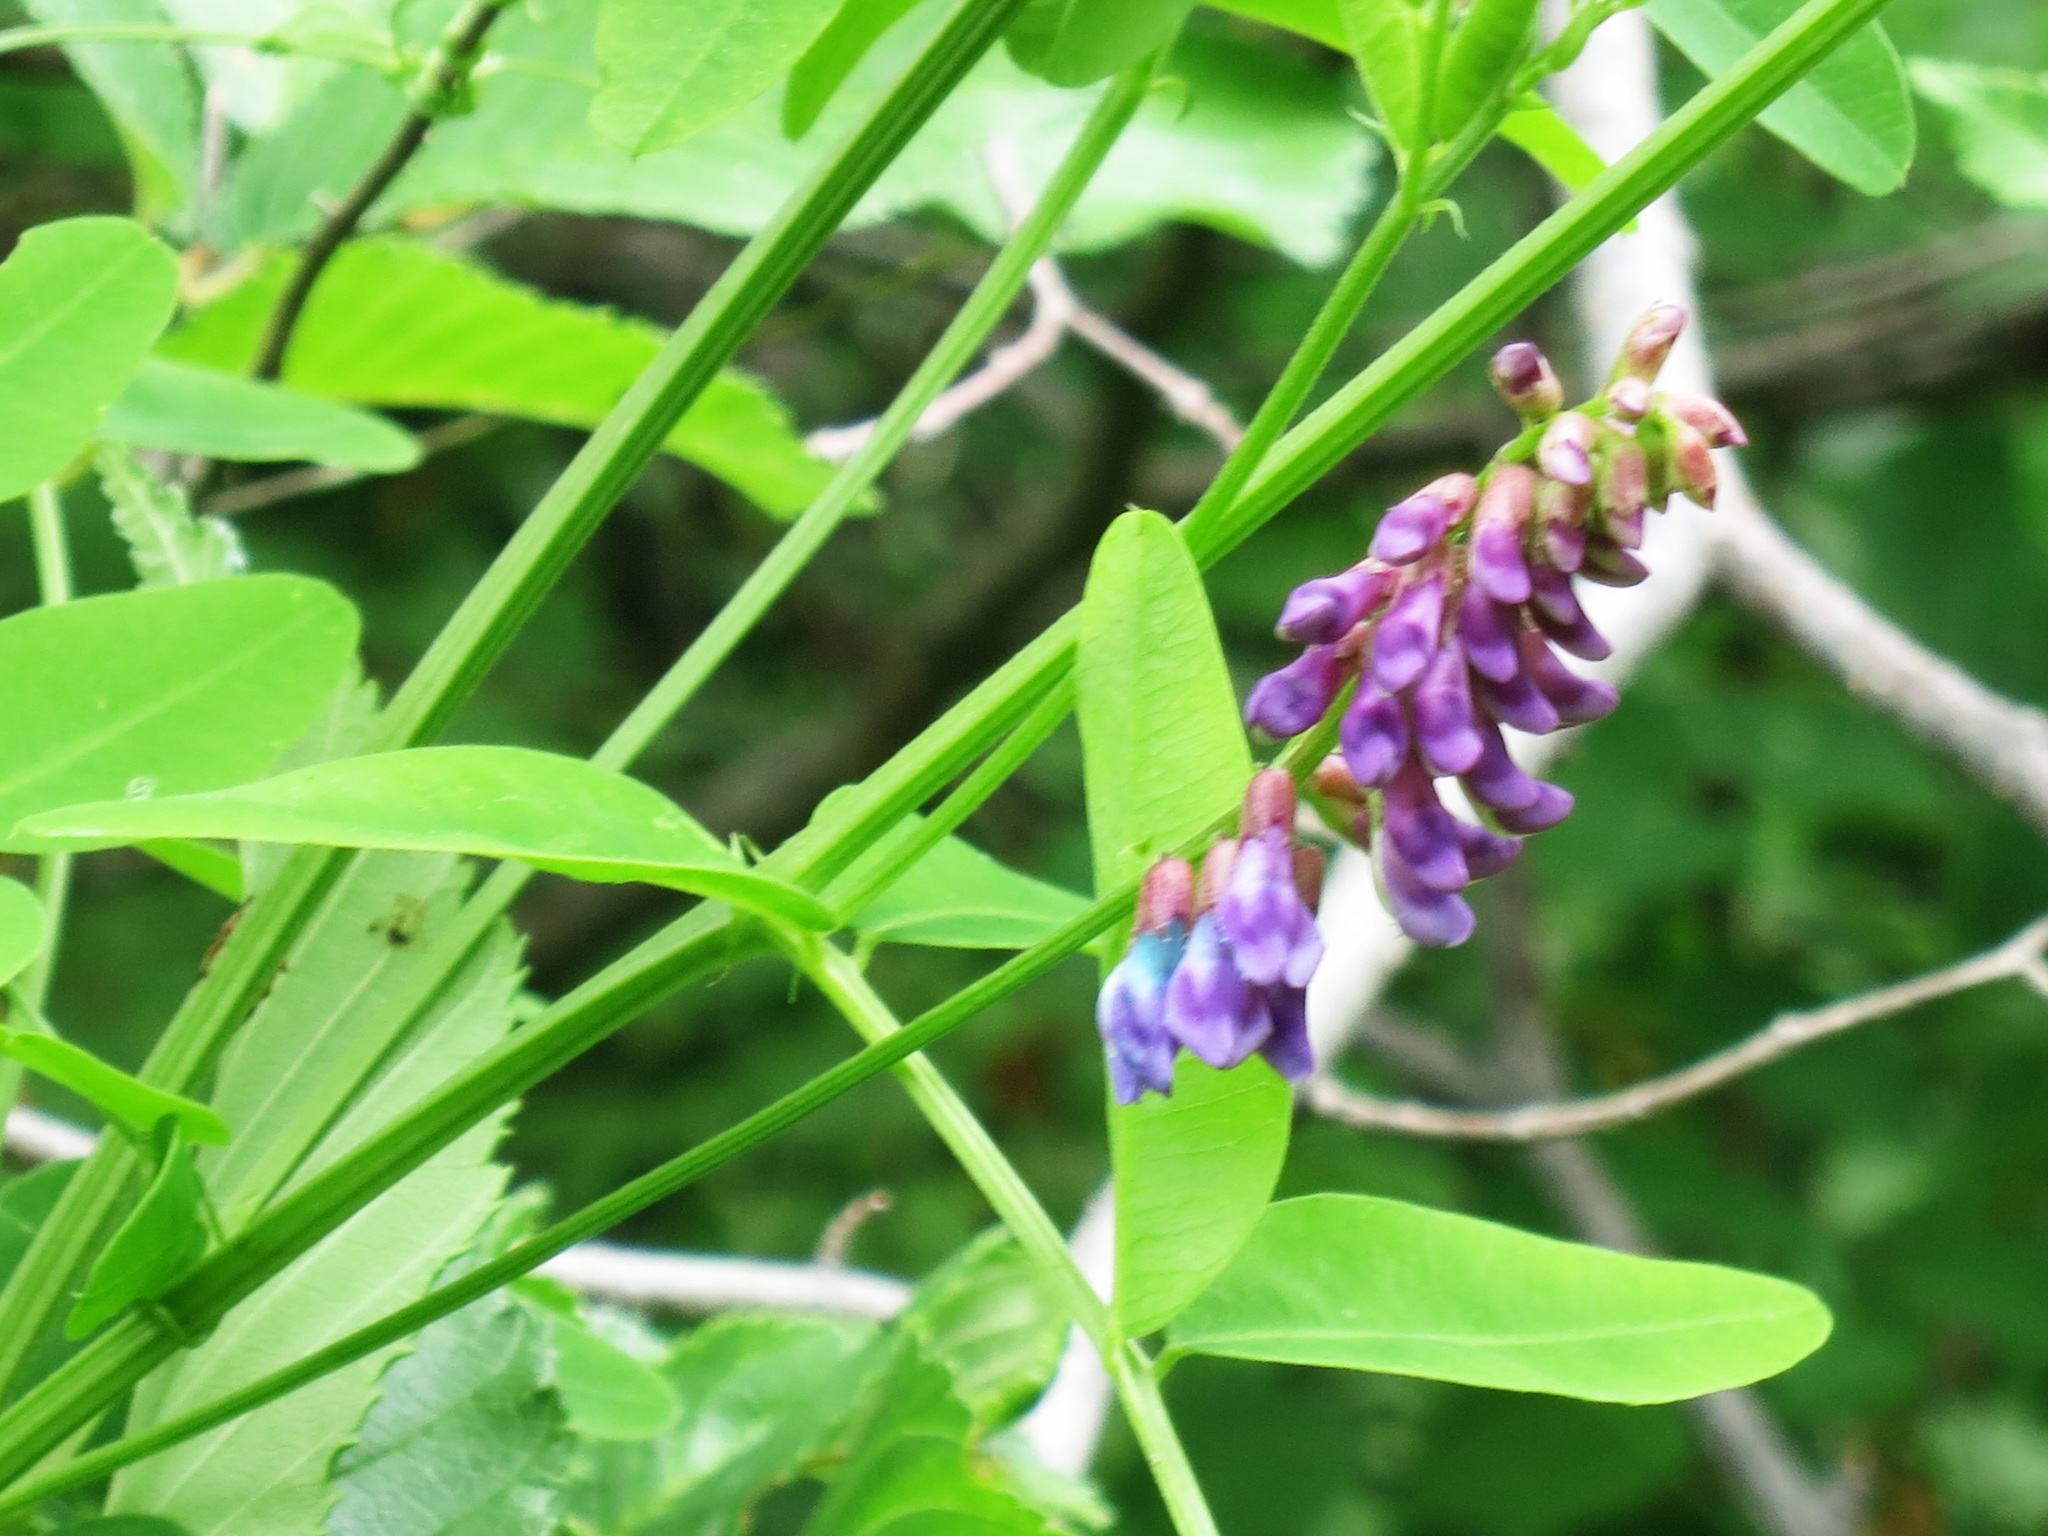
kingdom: Plantae
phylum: Tracheophyta
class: Magnoliopsida
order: Fabales
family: Fabaceae
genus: Vicia
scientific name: Vicia amurensis
